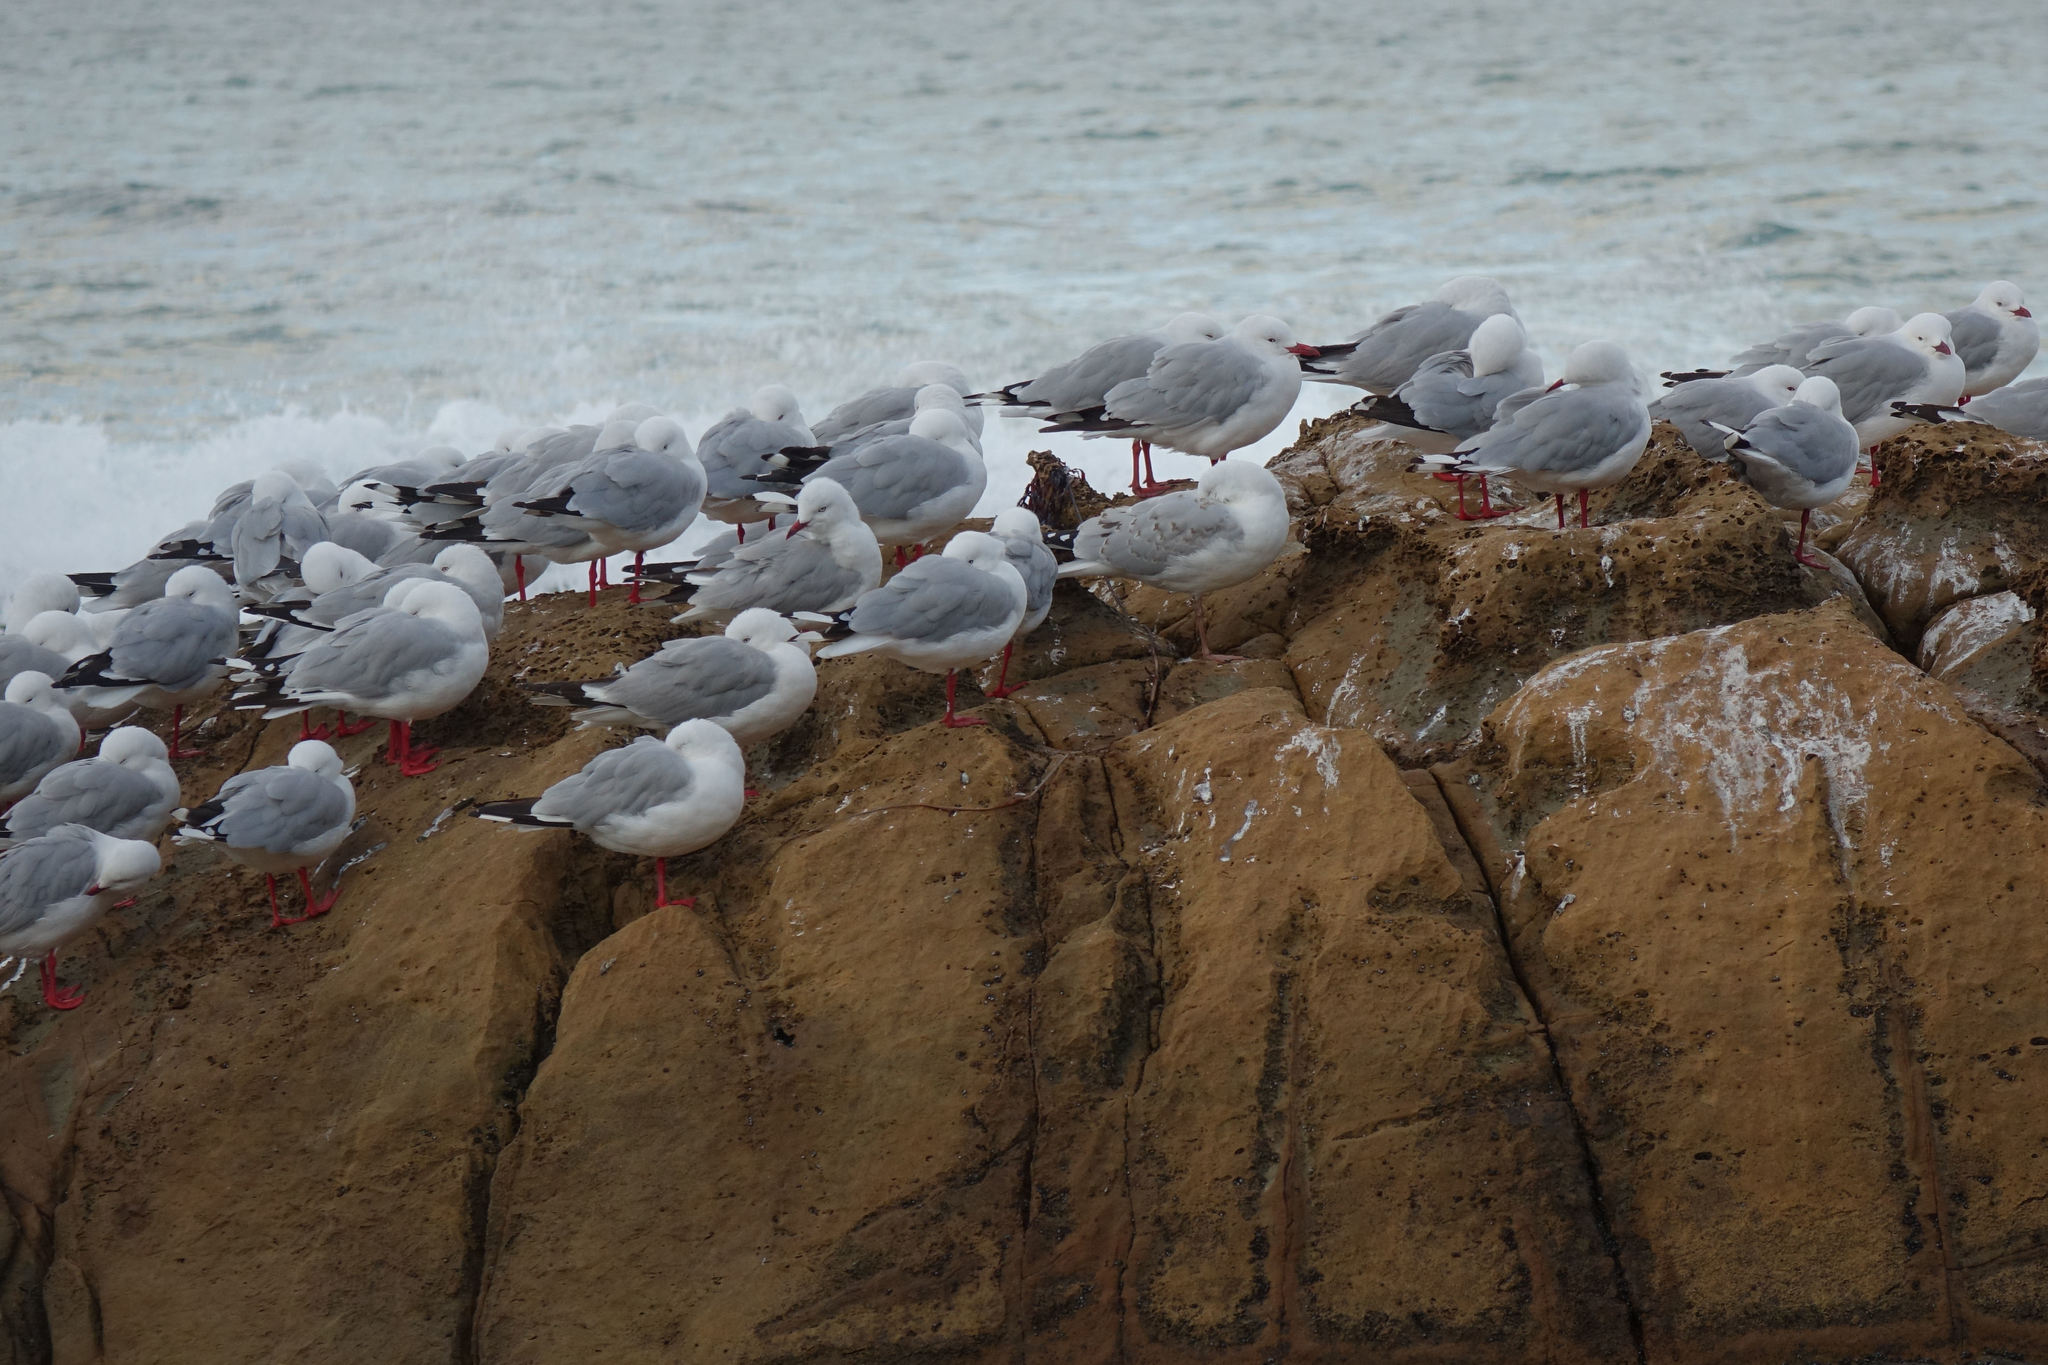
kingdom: Animalia
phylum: Chordata
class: Aves
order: Charadriiformes
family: Laridae
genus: Chroicocephalus
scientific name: Chroicocephalus novaehollandiae
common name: Silver gull
